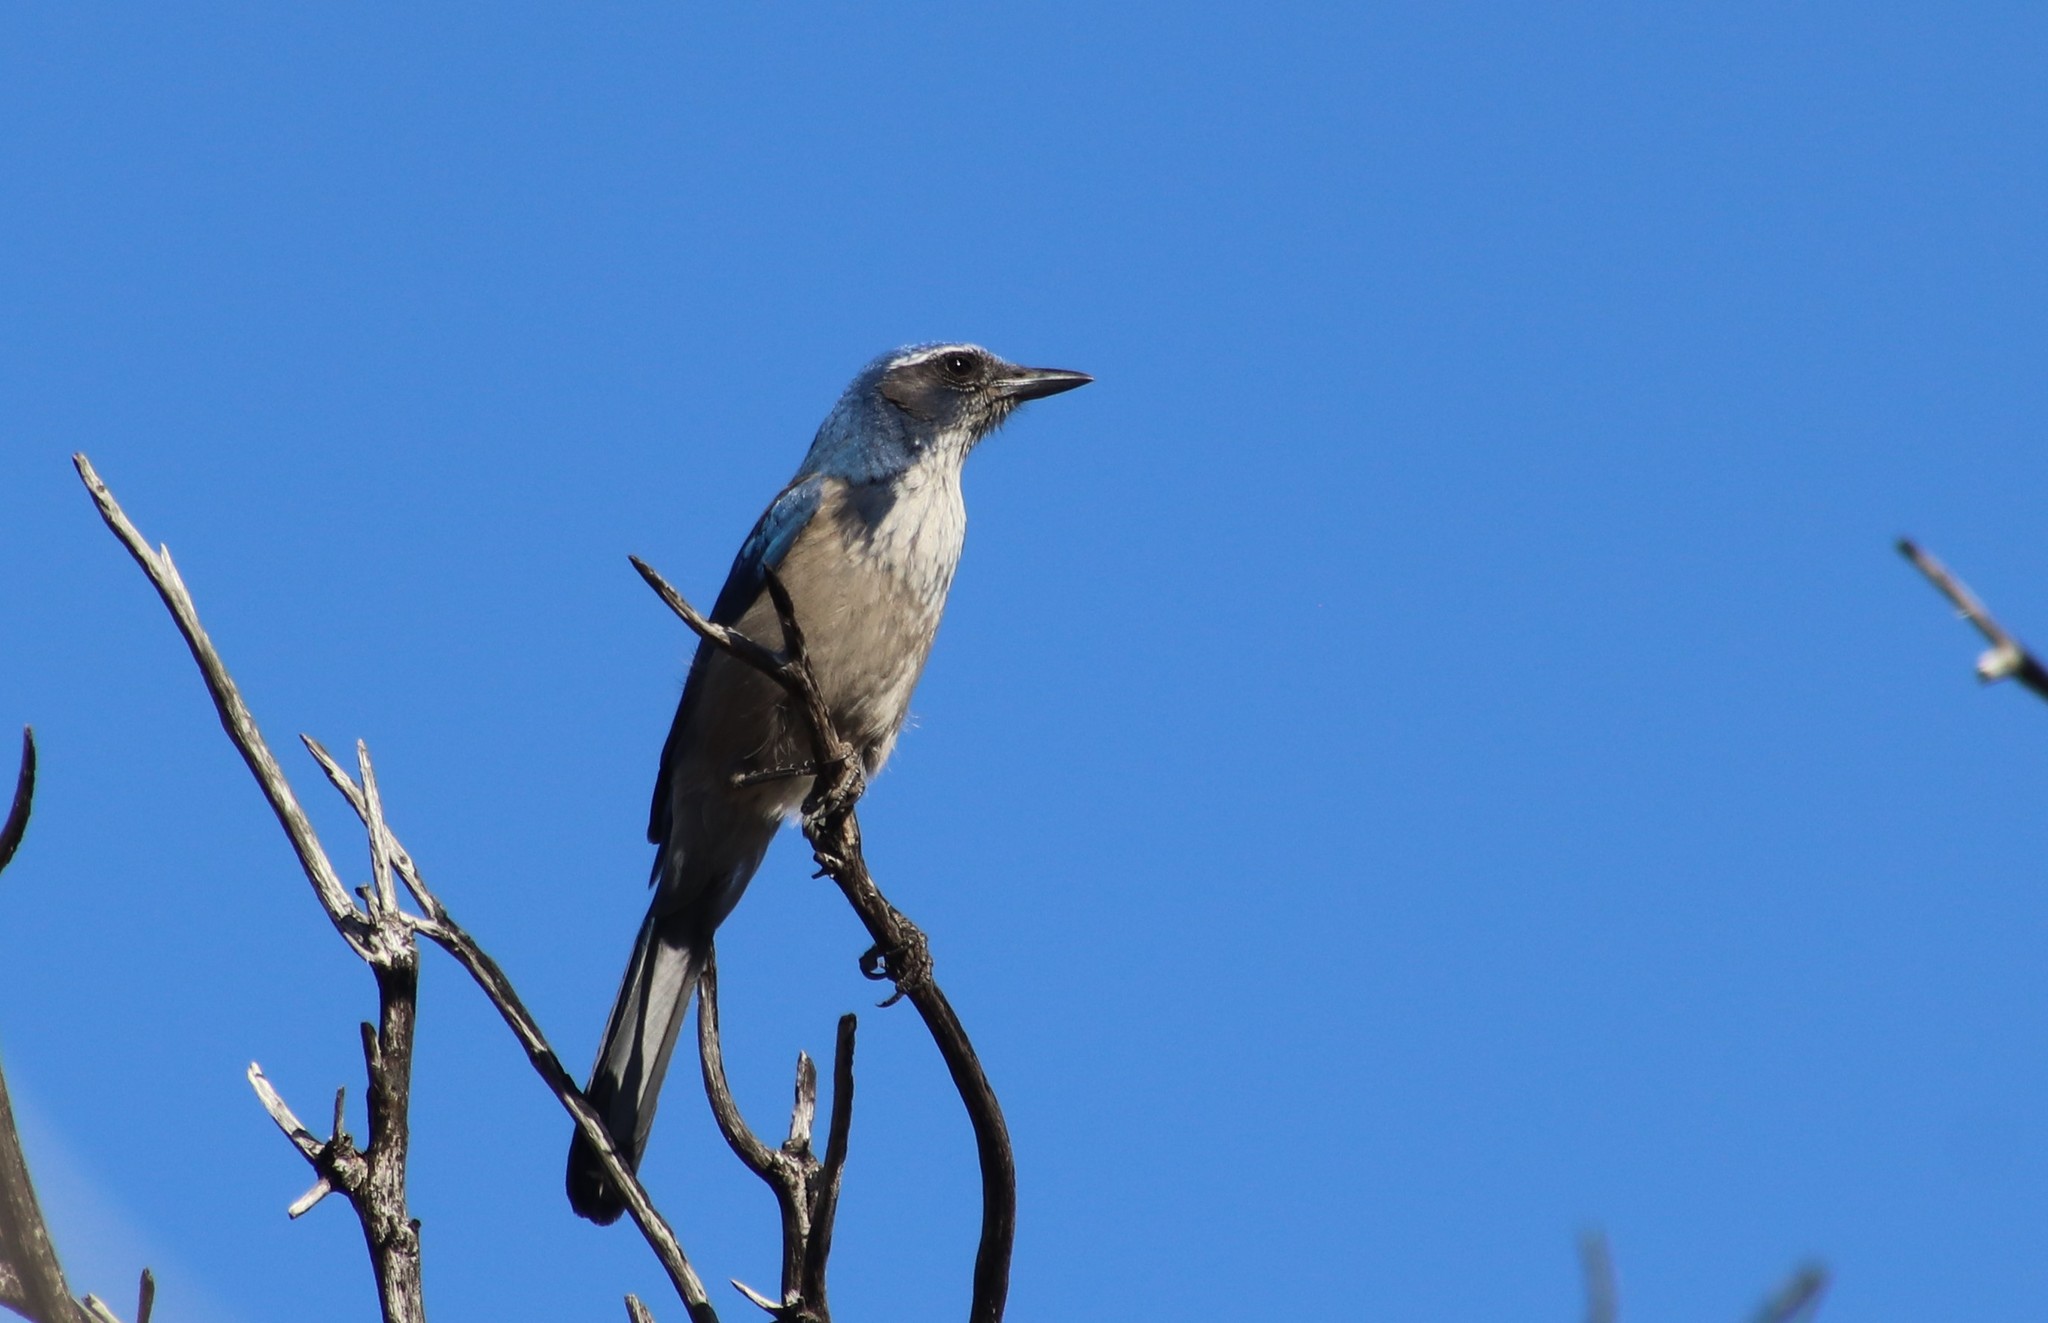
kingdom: Animalia
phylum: Chordata
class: Aves
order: Passeriformes
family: Corvidae
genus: Aphelocoma
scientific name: Aphelocoma californica
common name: California scrub-jay
